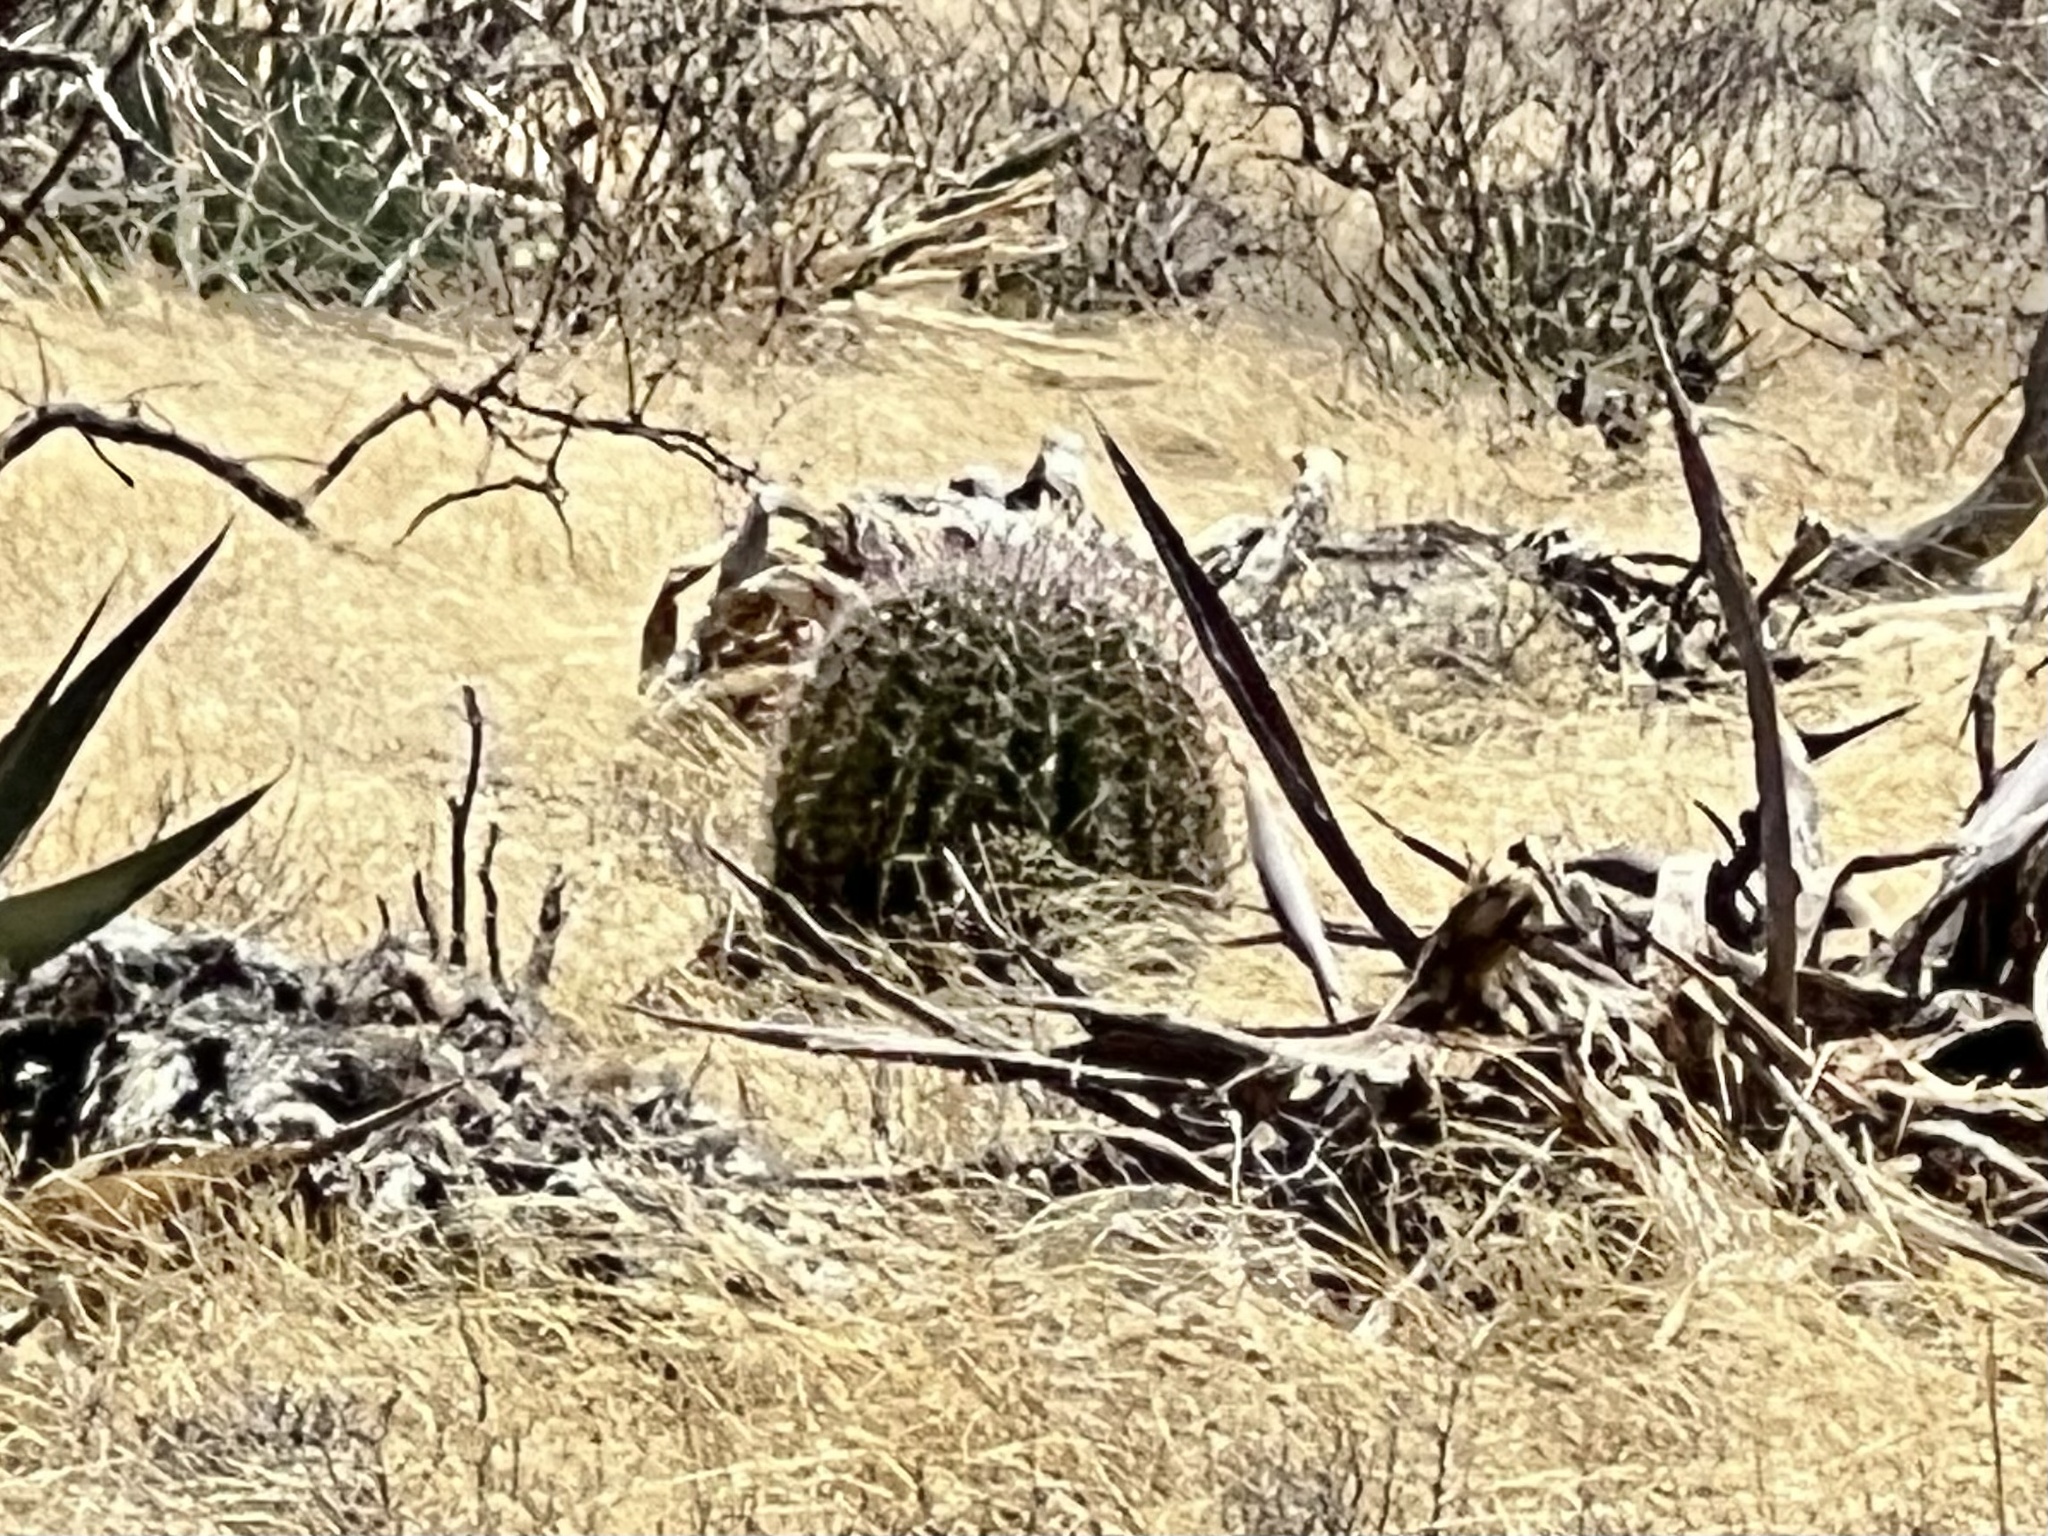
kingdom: Plantae
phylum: Tracheophyta
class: Magnoliopsida
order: Caryophyllales
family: Cactaceae
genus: Ferocactus
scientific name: Ferocactus wislizeni
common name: Candy barrel cactus
